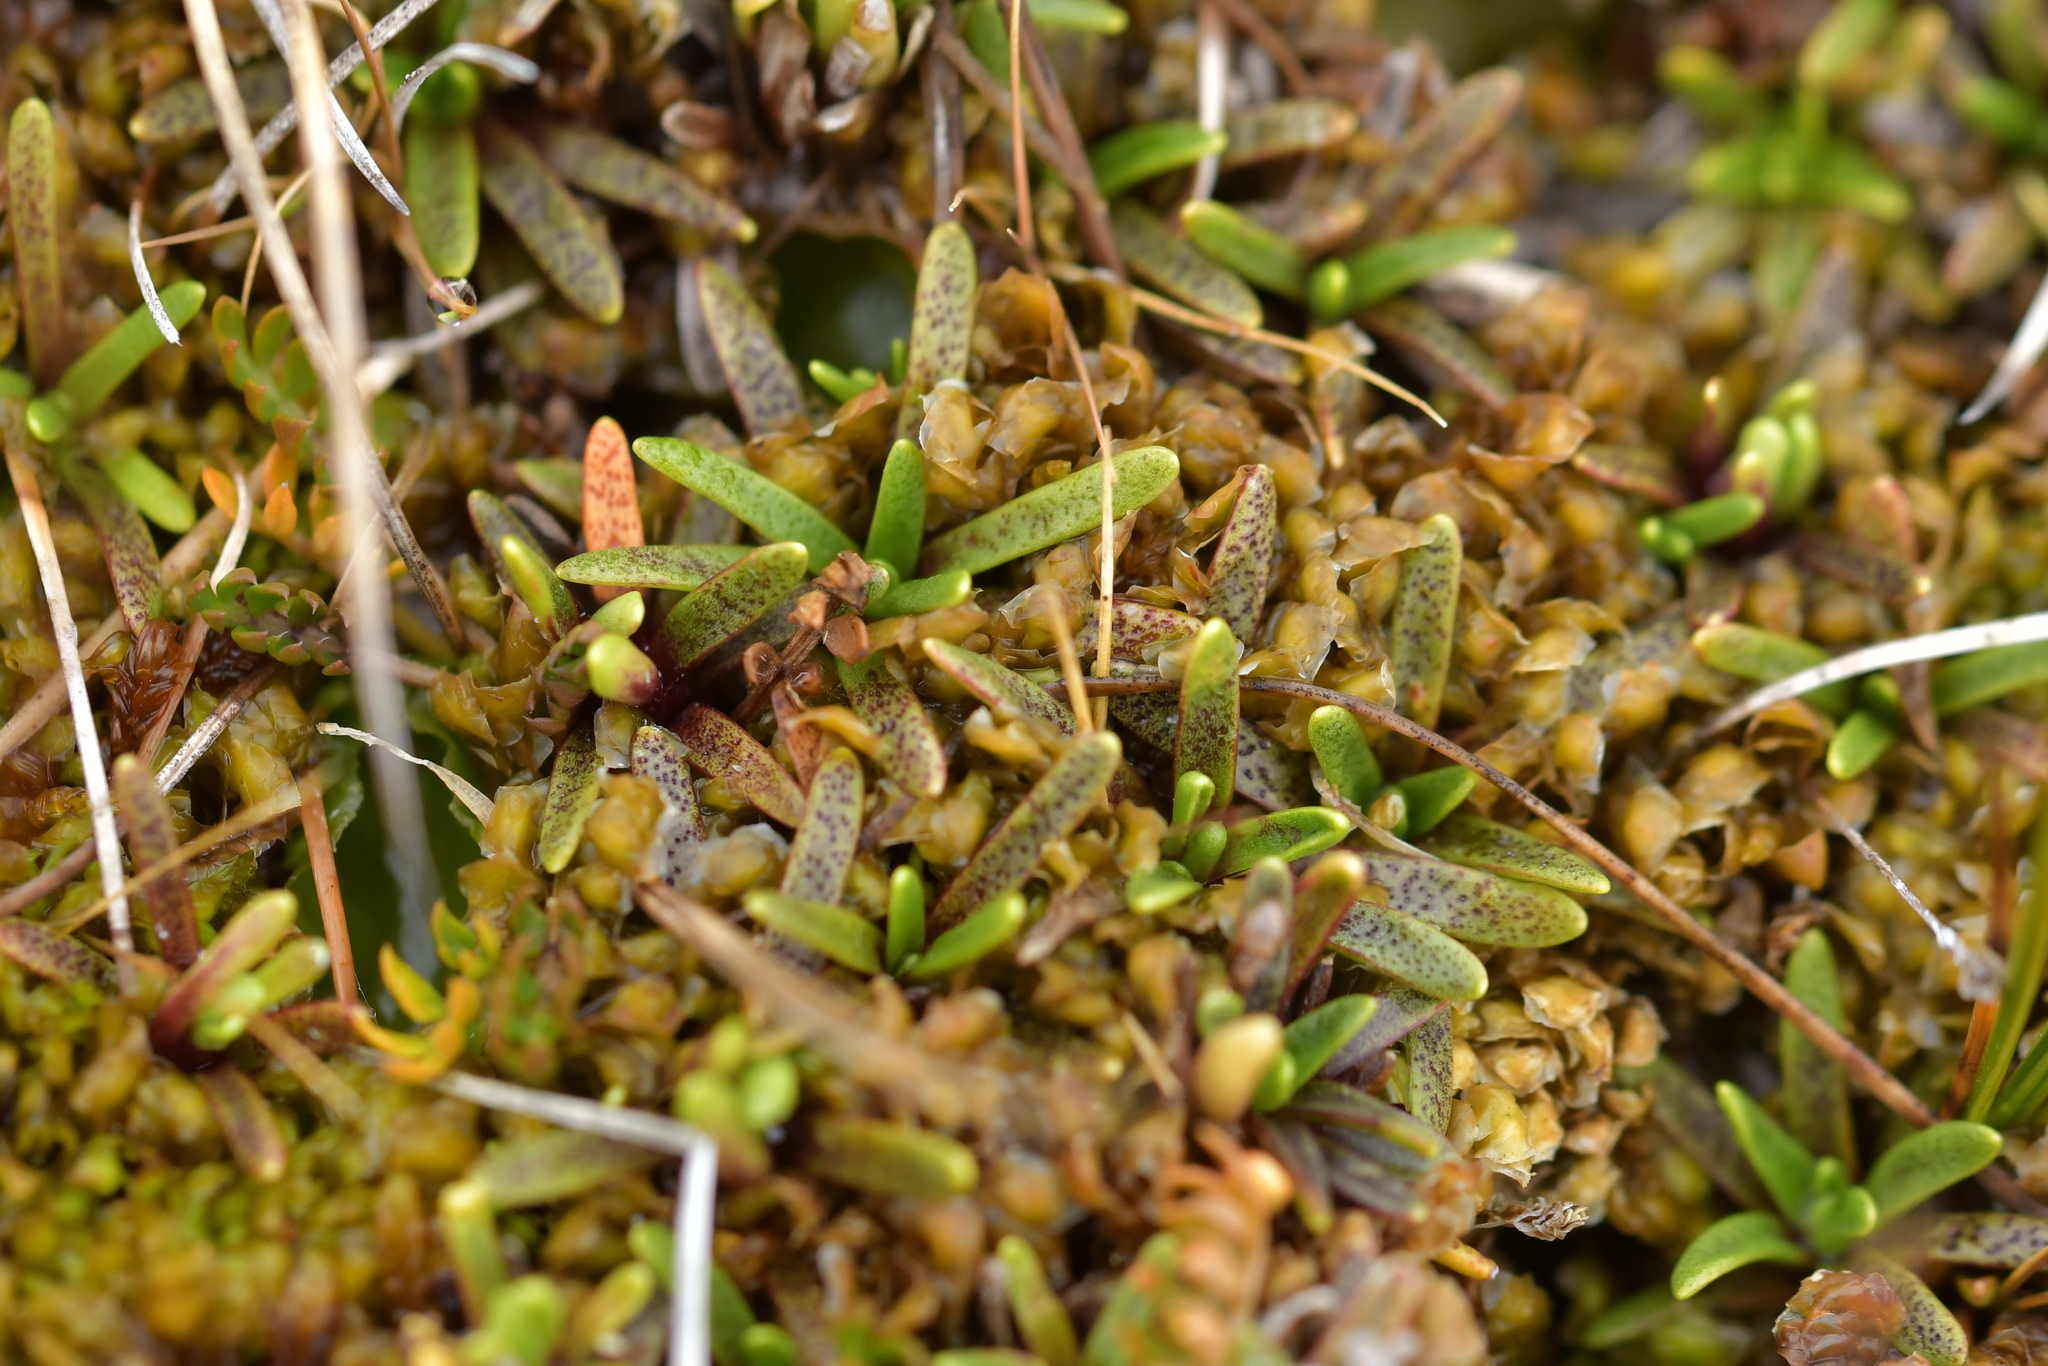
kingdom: Plantae
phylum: Tracheophyta
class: Magnoliopsida
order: Asterales
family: Asteraceae
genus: Abrotanella
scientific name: Abrotanella caespitosa
